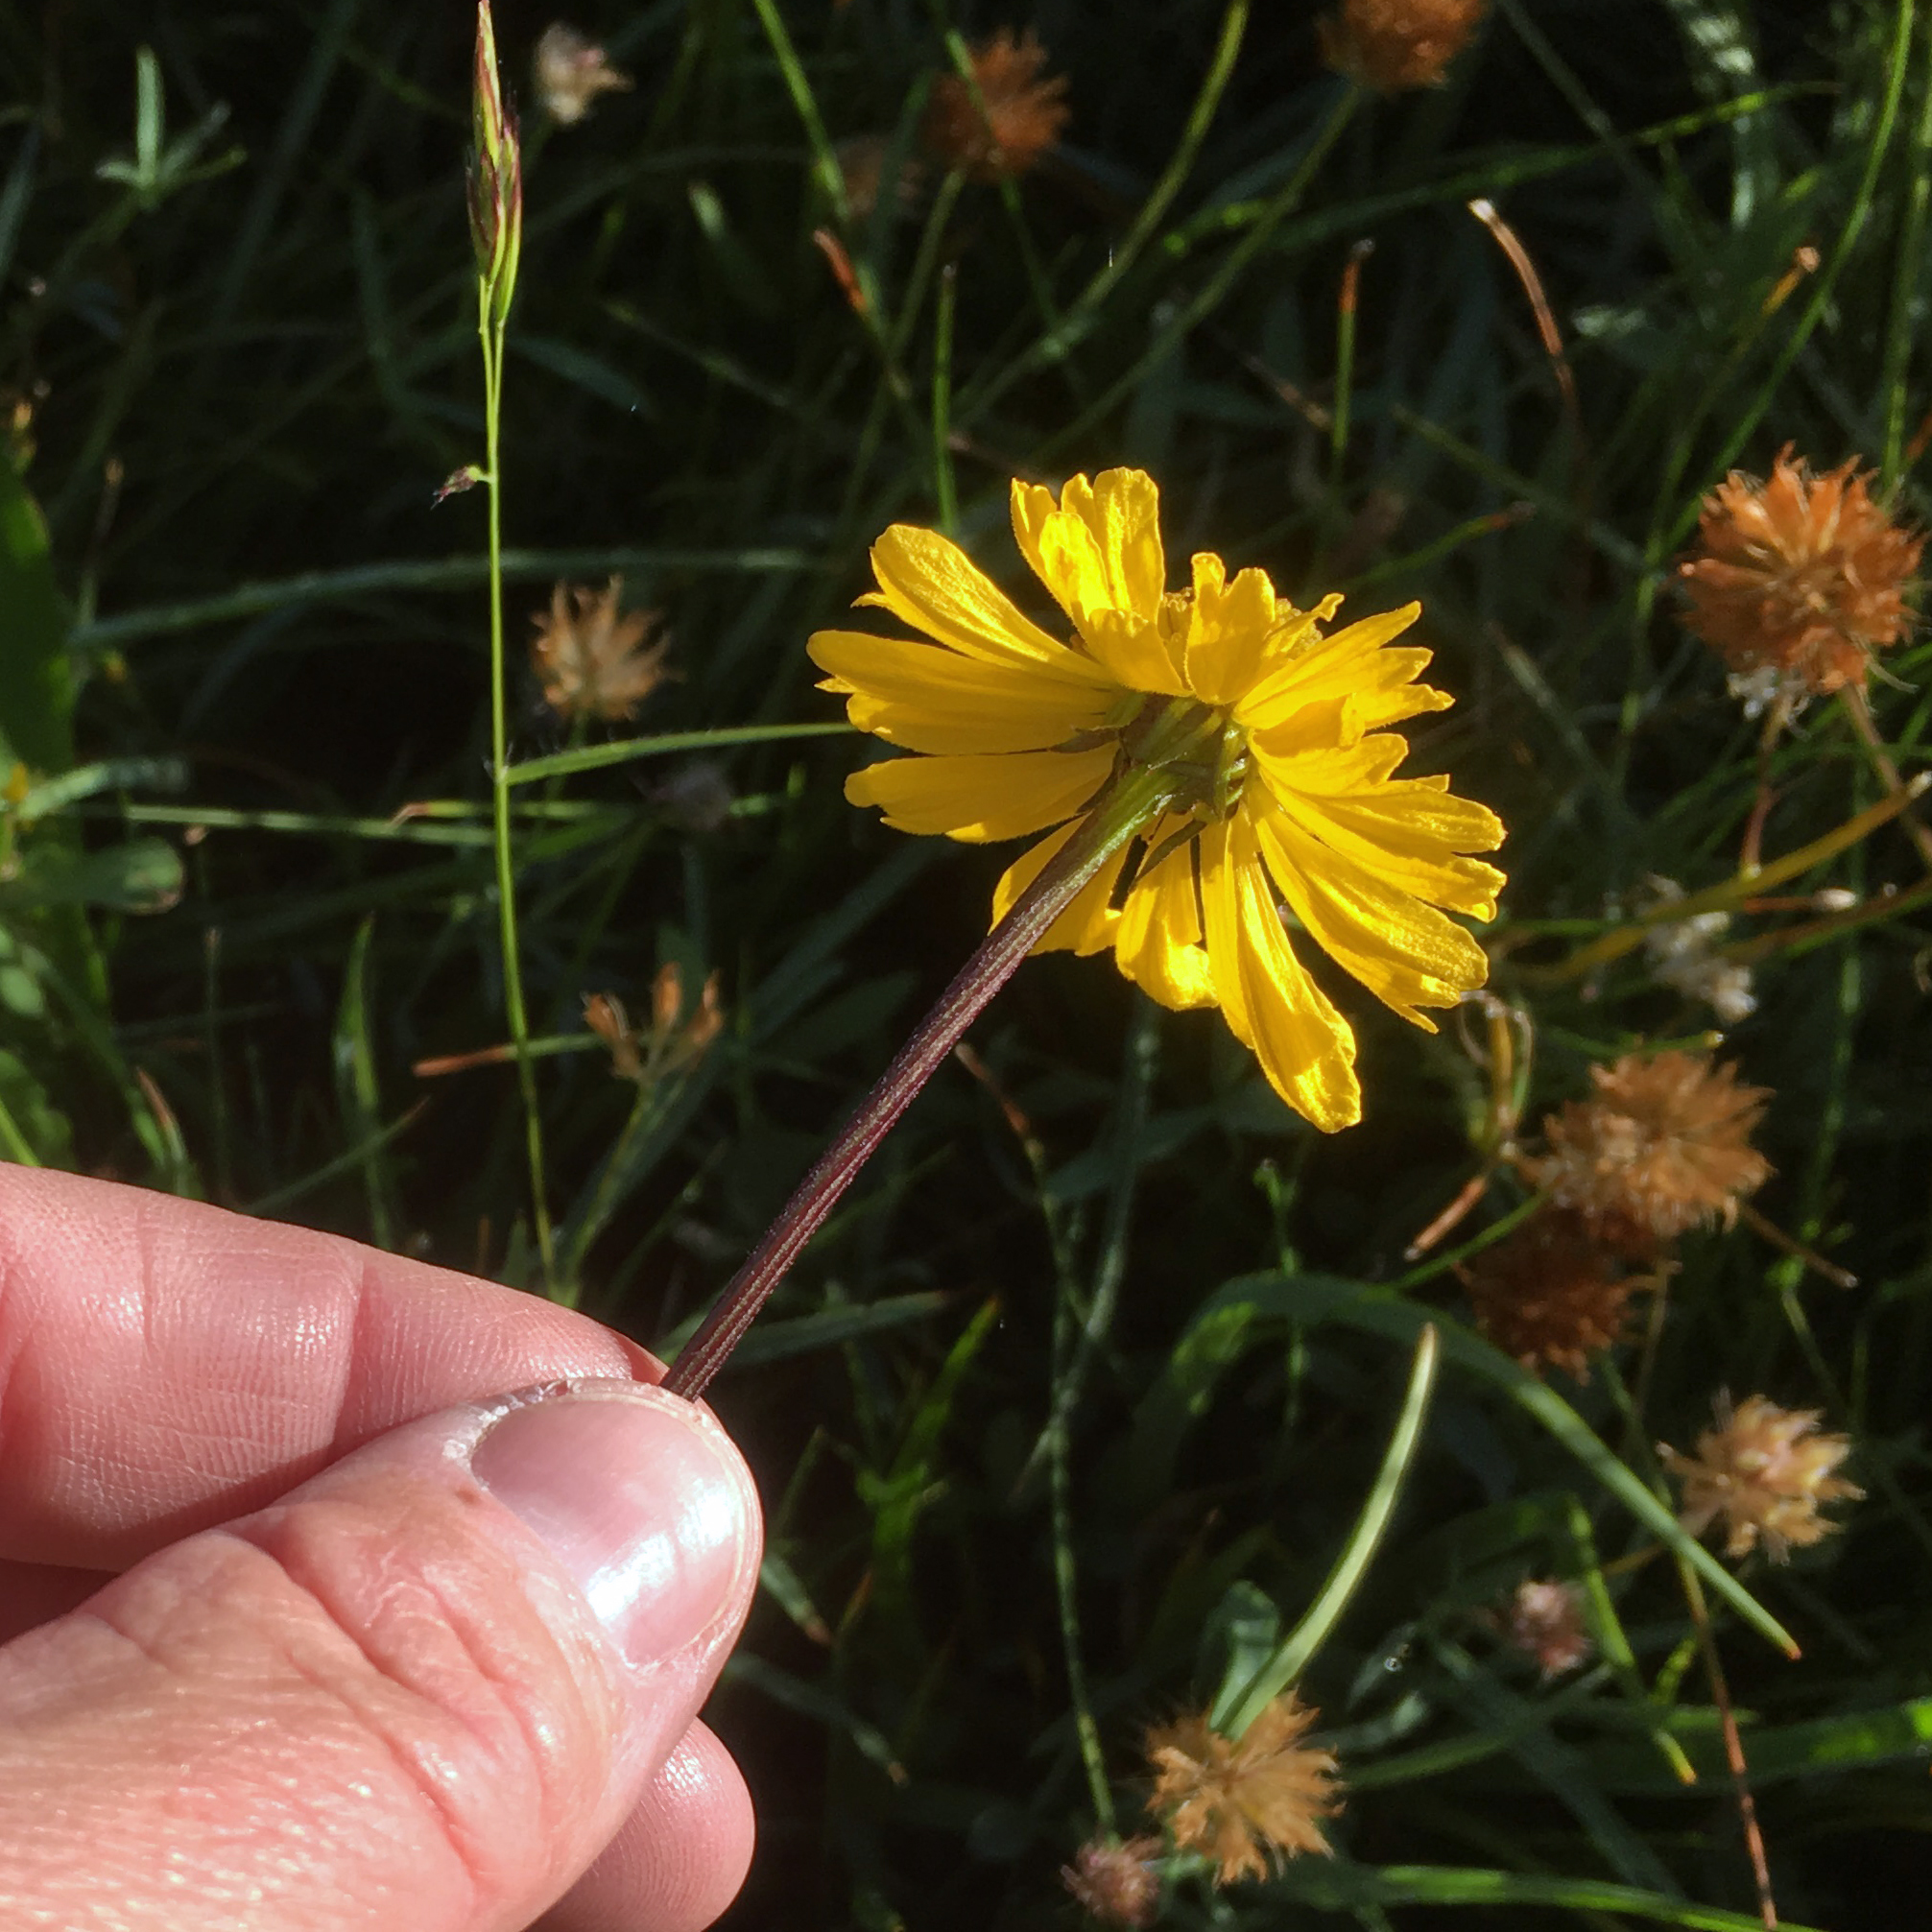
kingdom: Plantae
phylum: Tracheophyta
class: Magnoliopsida
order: Asterales
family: Asteraceae
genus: Helenium
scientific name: Helenium bigelovii
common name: Bigelow's sneezeweed
